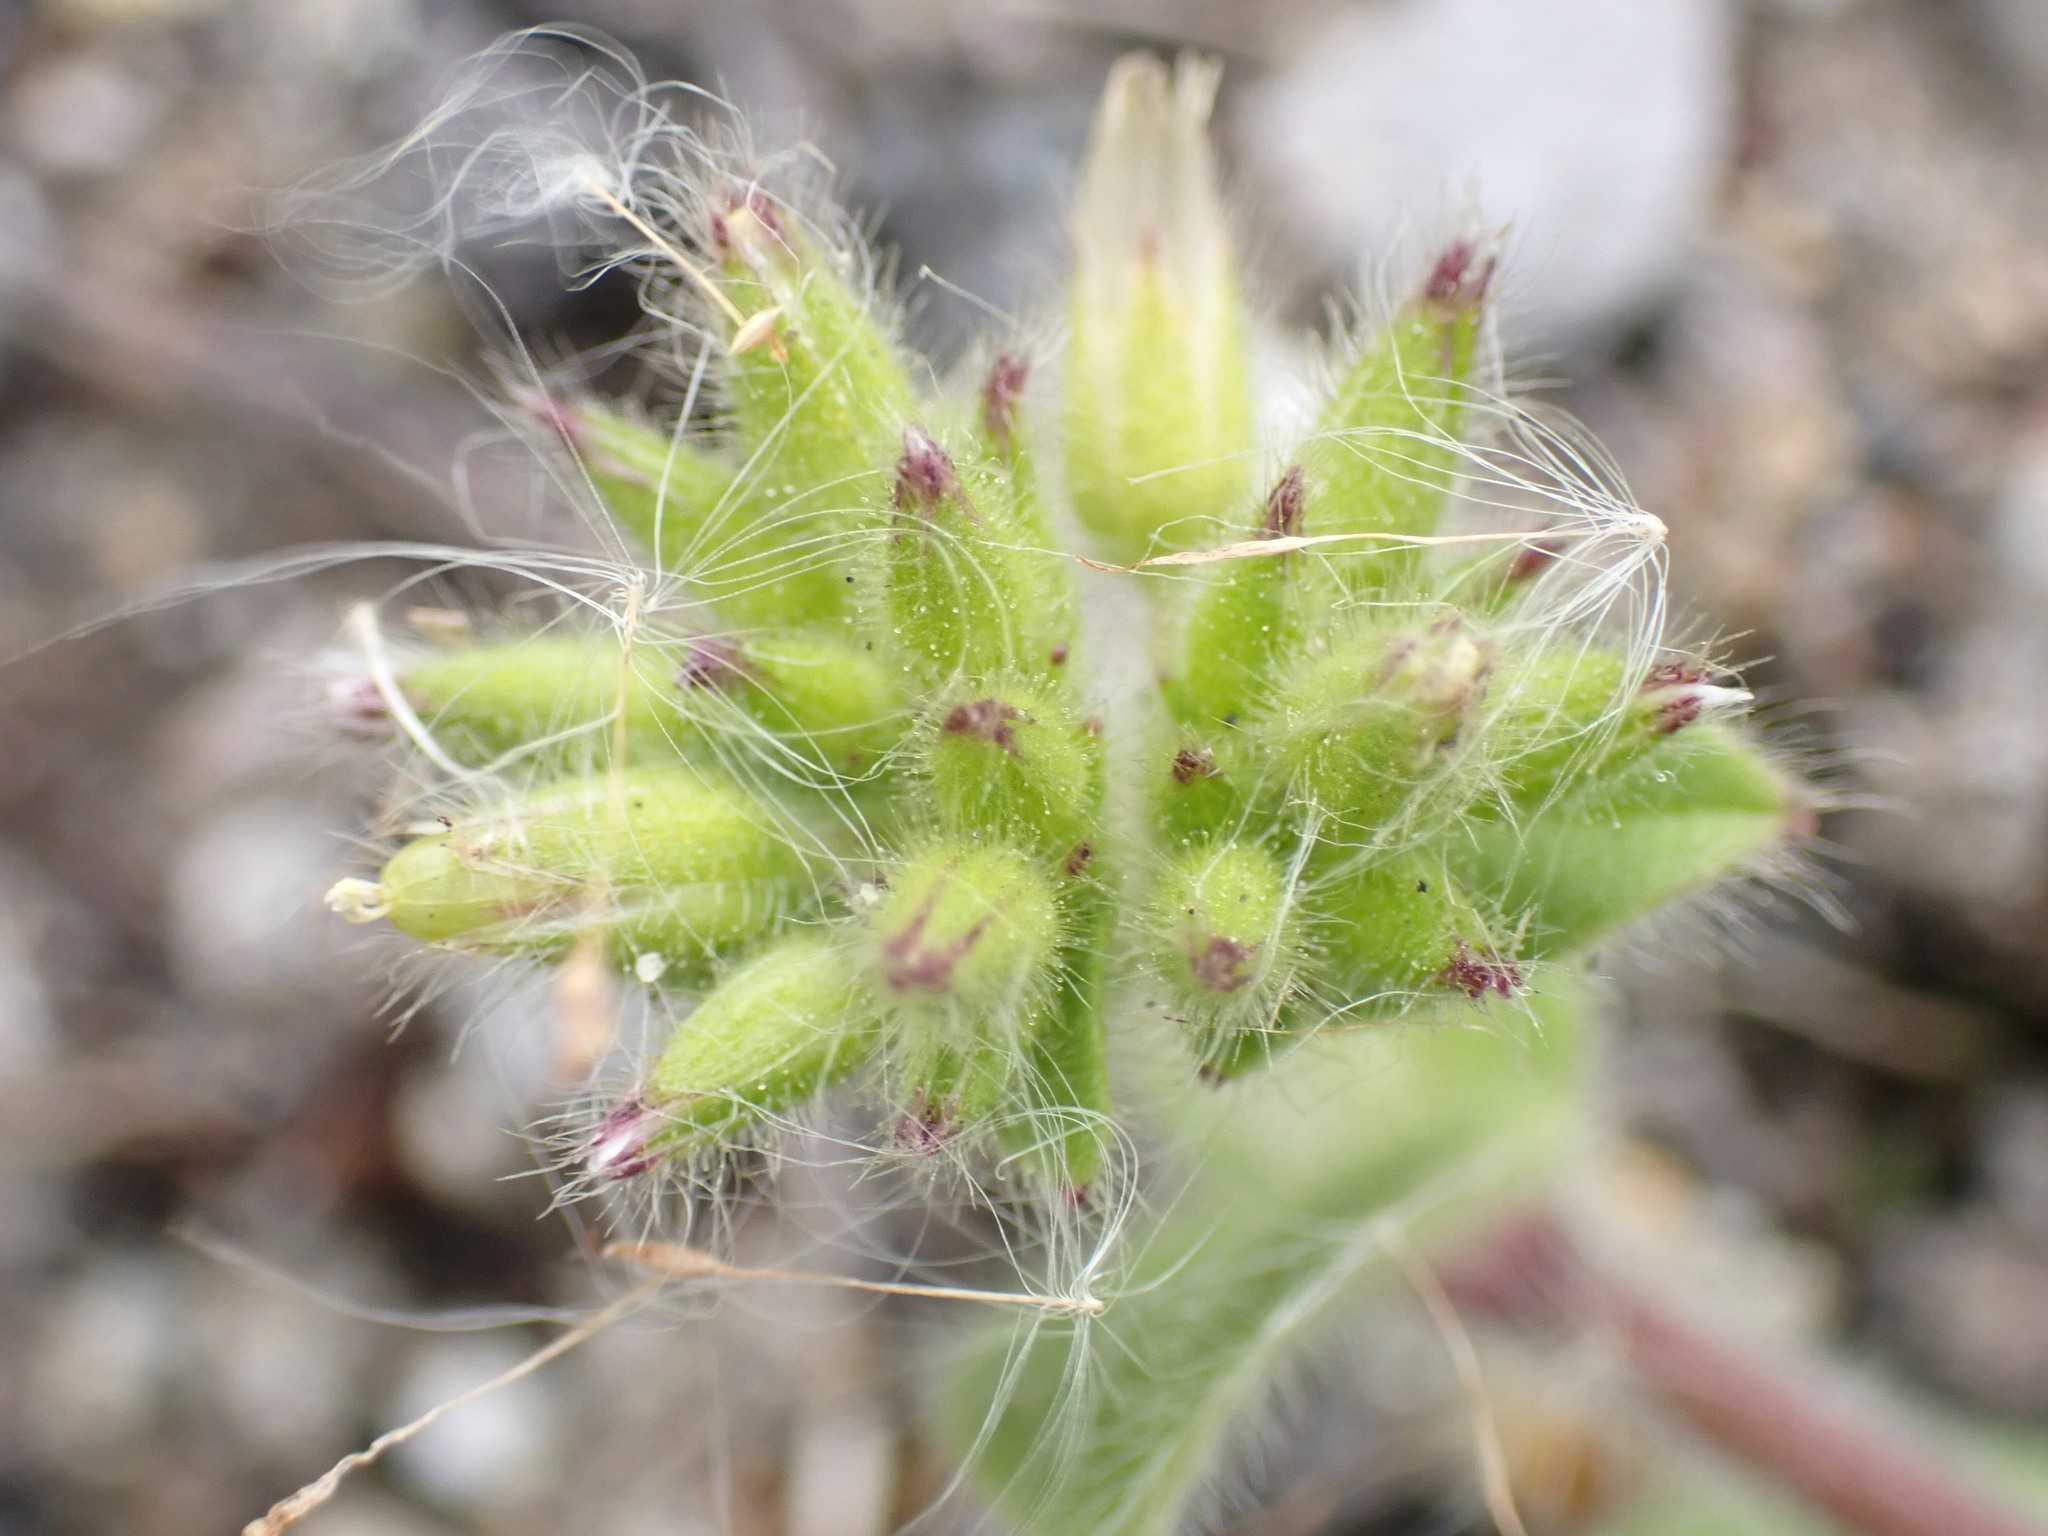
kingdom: Plantae
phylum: Tracheophyta
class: Magnoliopsida
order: Caryophyllales
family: Caryophyllaceae
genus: Cerastium
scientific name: Cerastium glomeratum
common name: Sticky chickweed
